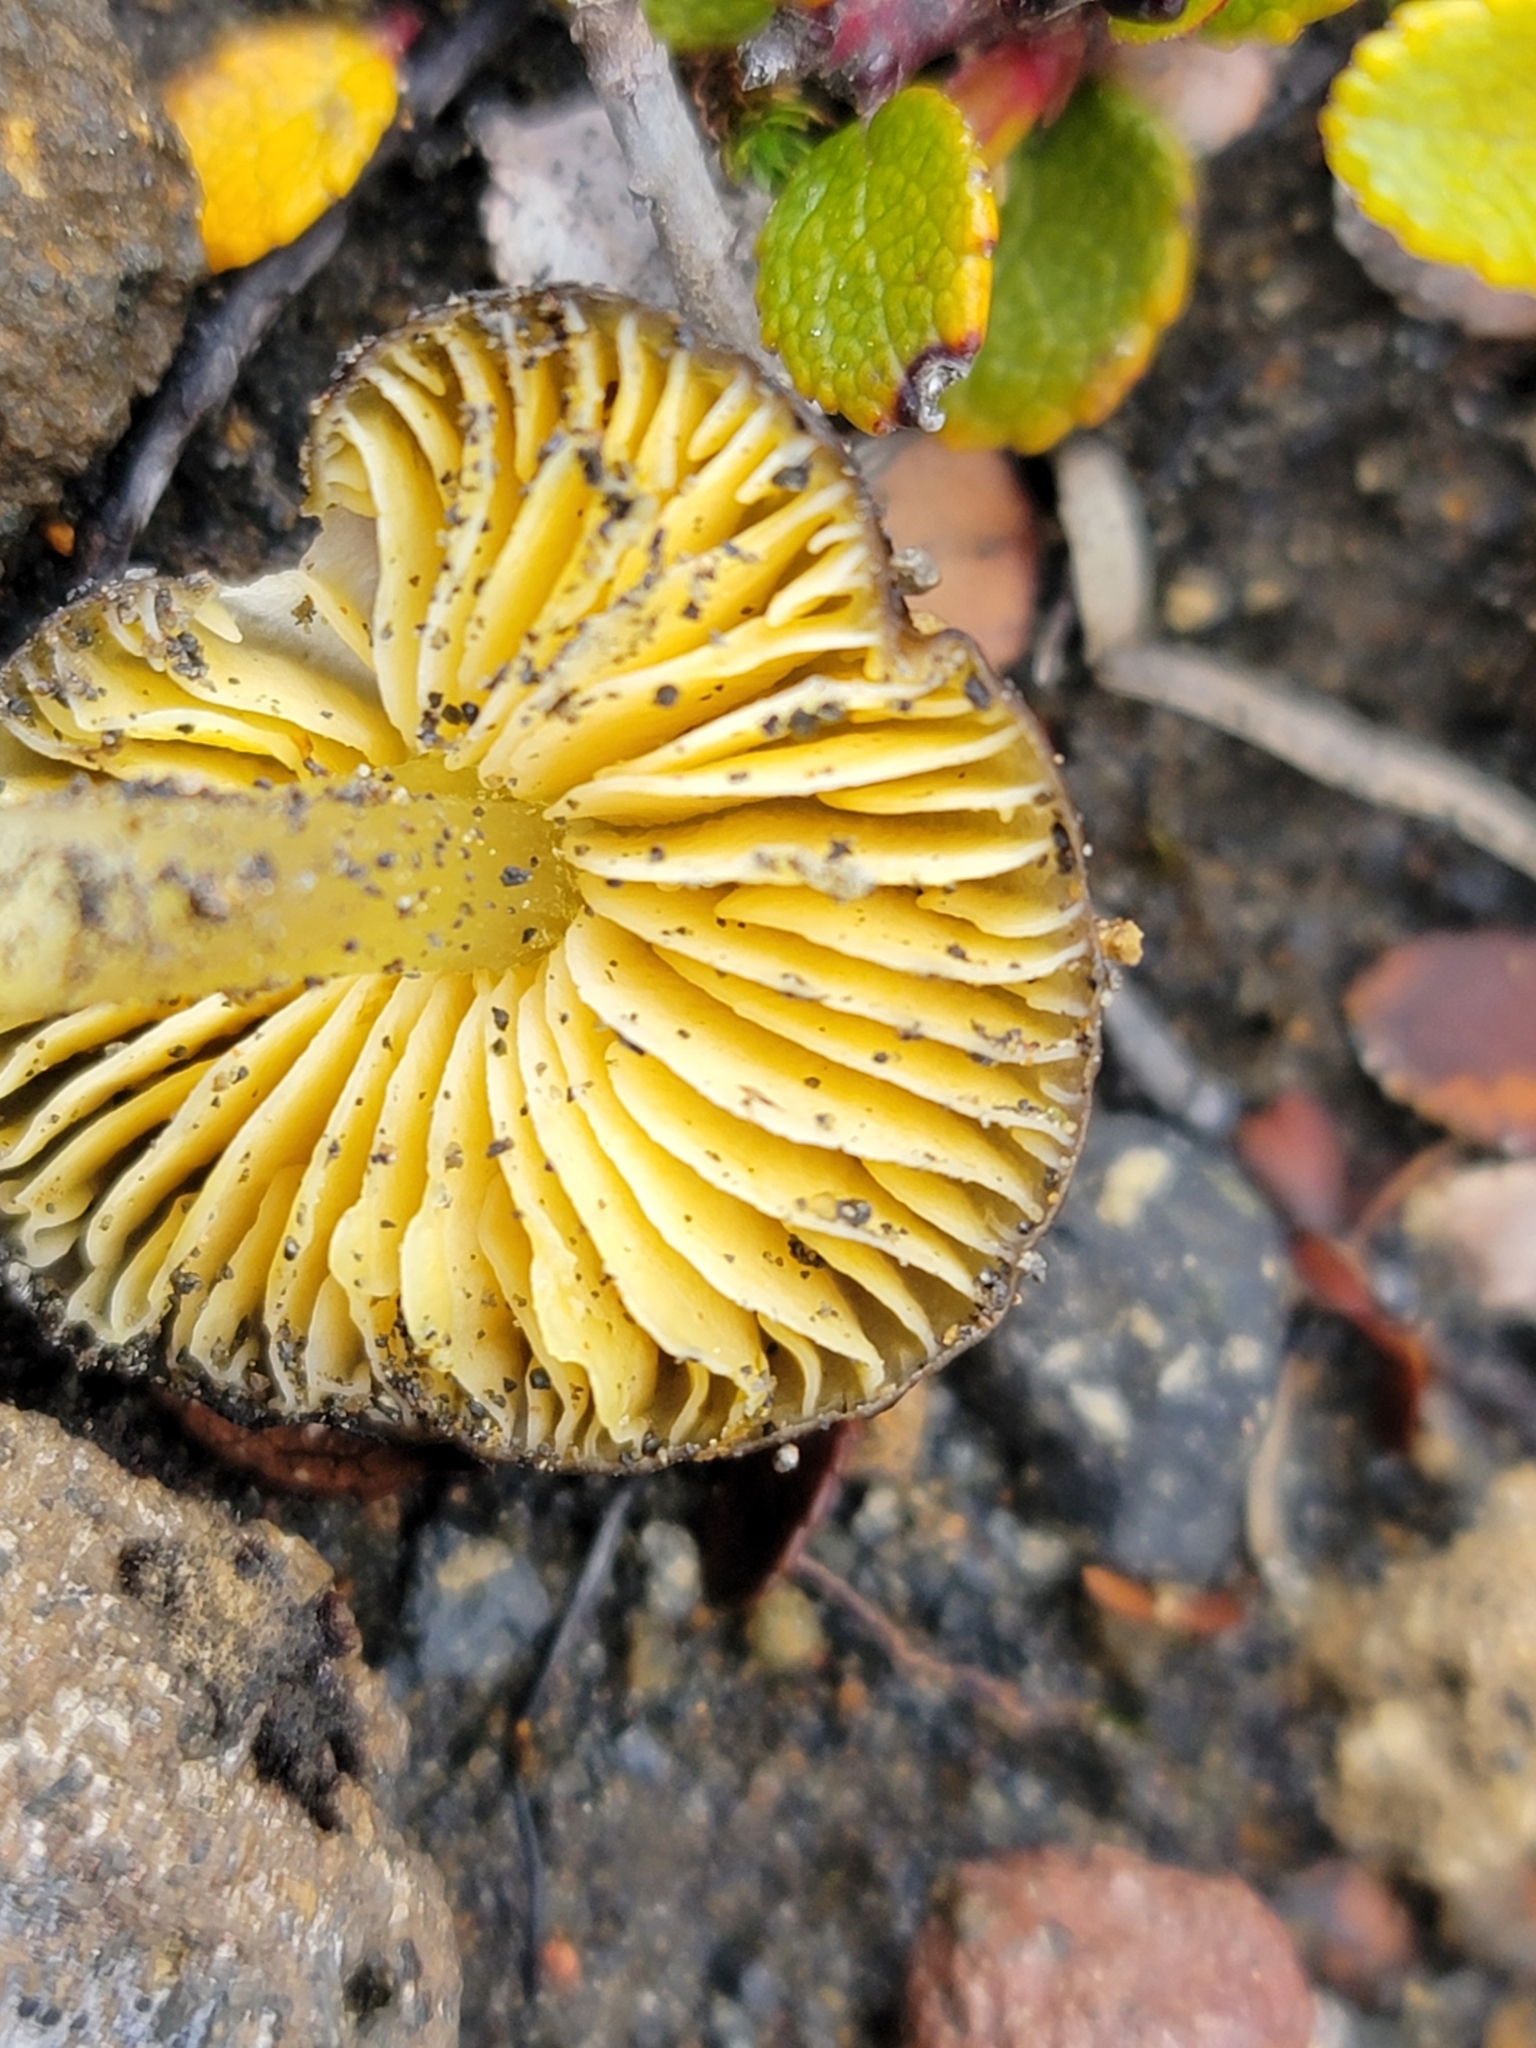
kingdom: Fungi
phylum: Basidiomycota
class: Agaricomycetes
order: Agaricales
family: Hygrophoraceae
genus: Hygrocybe
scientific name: Hygrocybe fuliginata
